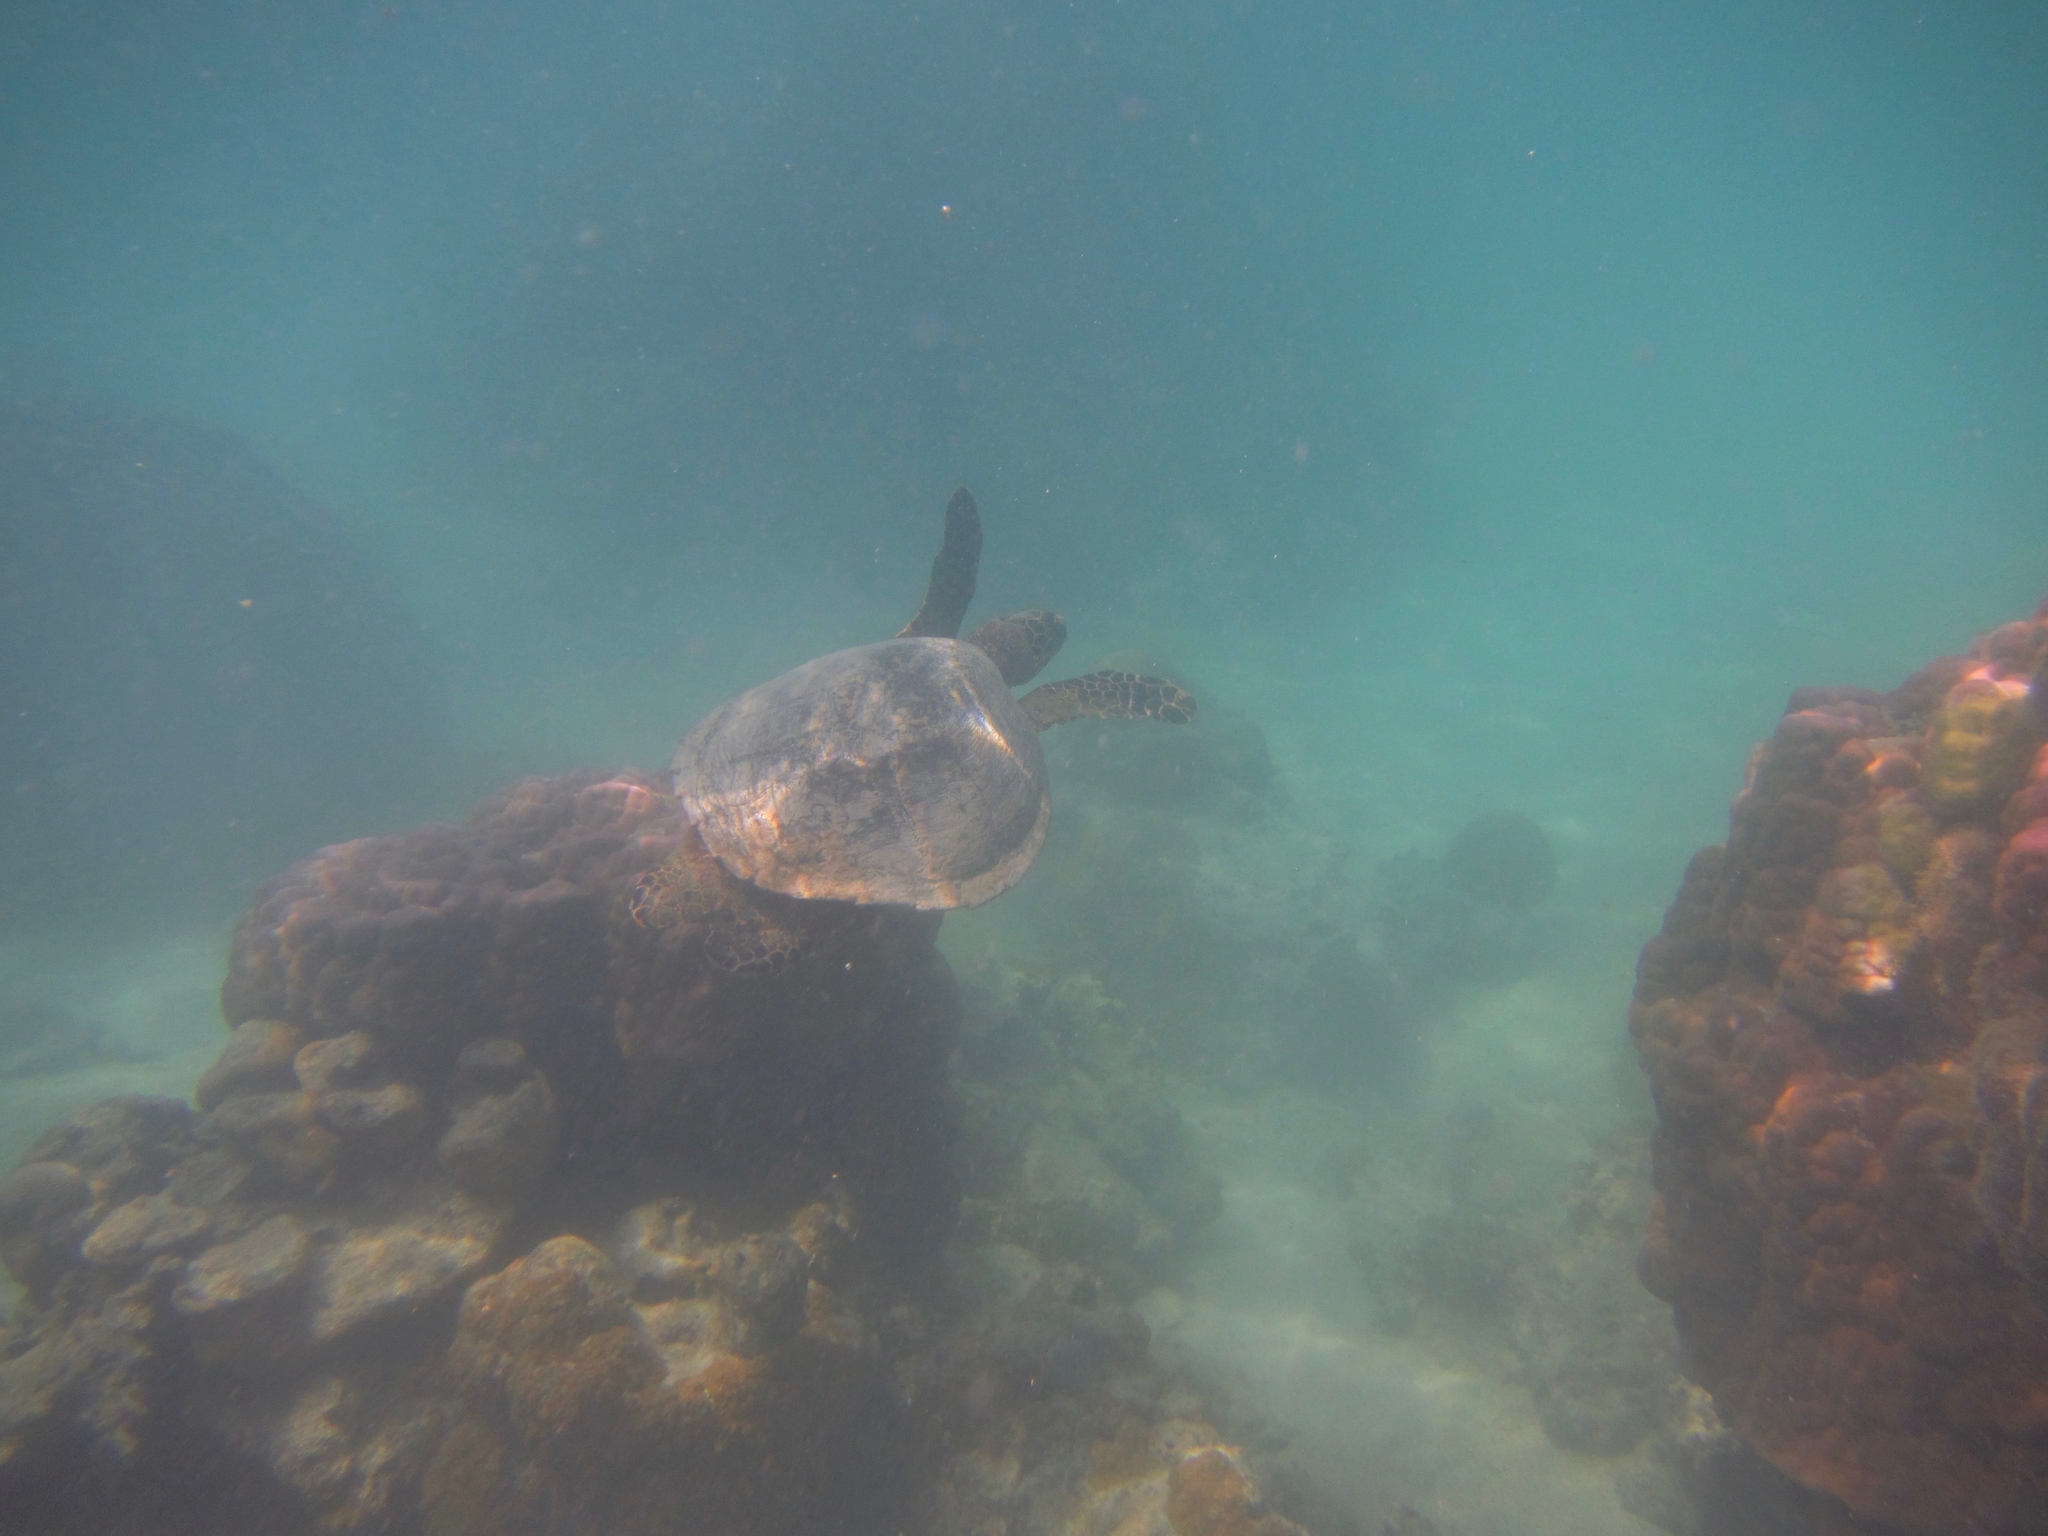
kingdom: Animalia
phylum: Chordata
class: Testudines
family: Cheloniidae
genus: Chelonia
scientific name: Chelonia mydas
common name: Green turtle
